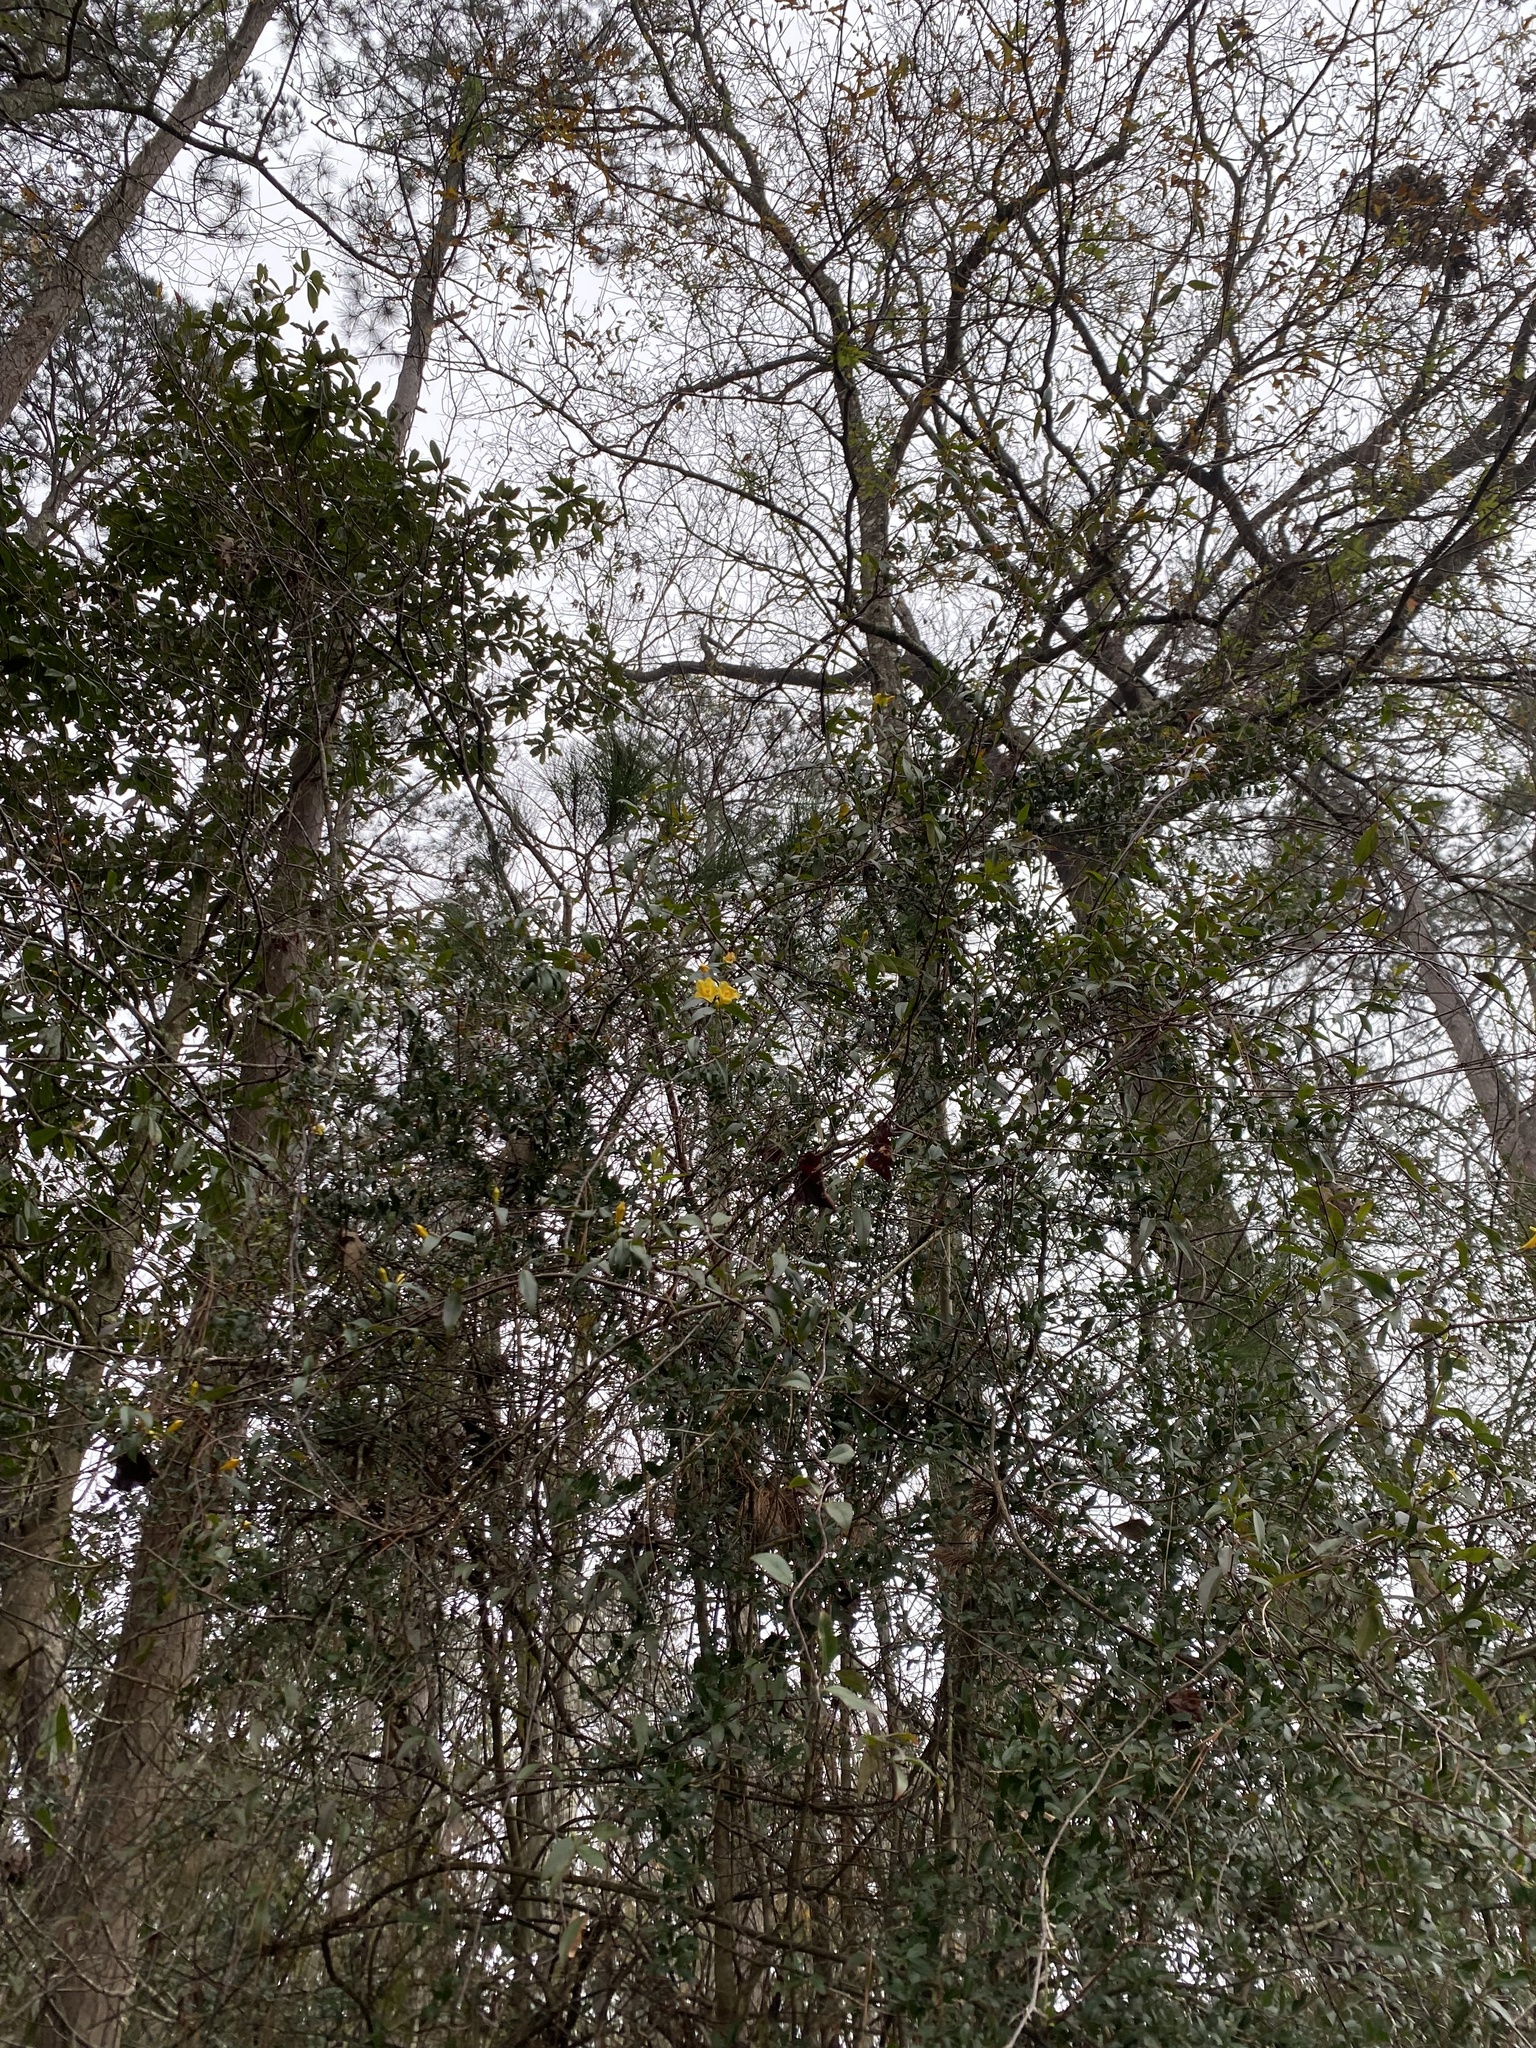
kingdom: Plantae
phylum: Tracheophyta
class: Magnoliopsida
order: Gentianales
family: Gelsemiaceae
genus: Gelsemium
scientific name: Gelsemium sempervirens
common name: Carolina-jasmine
